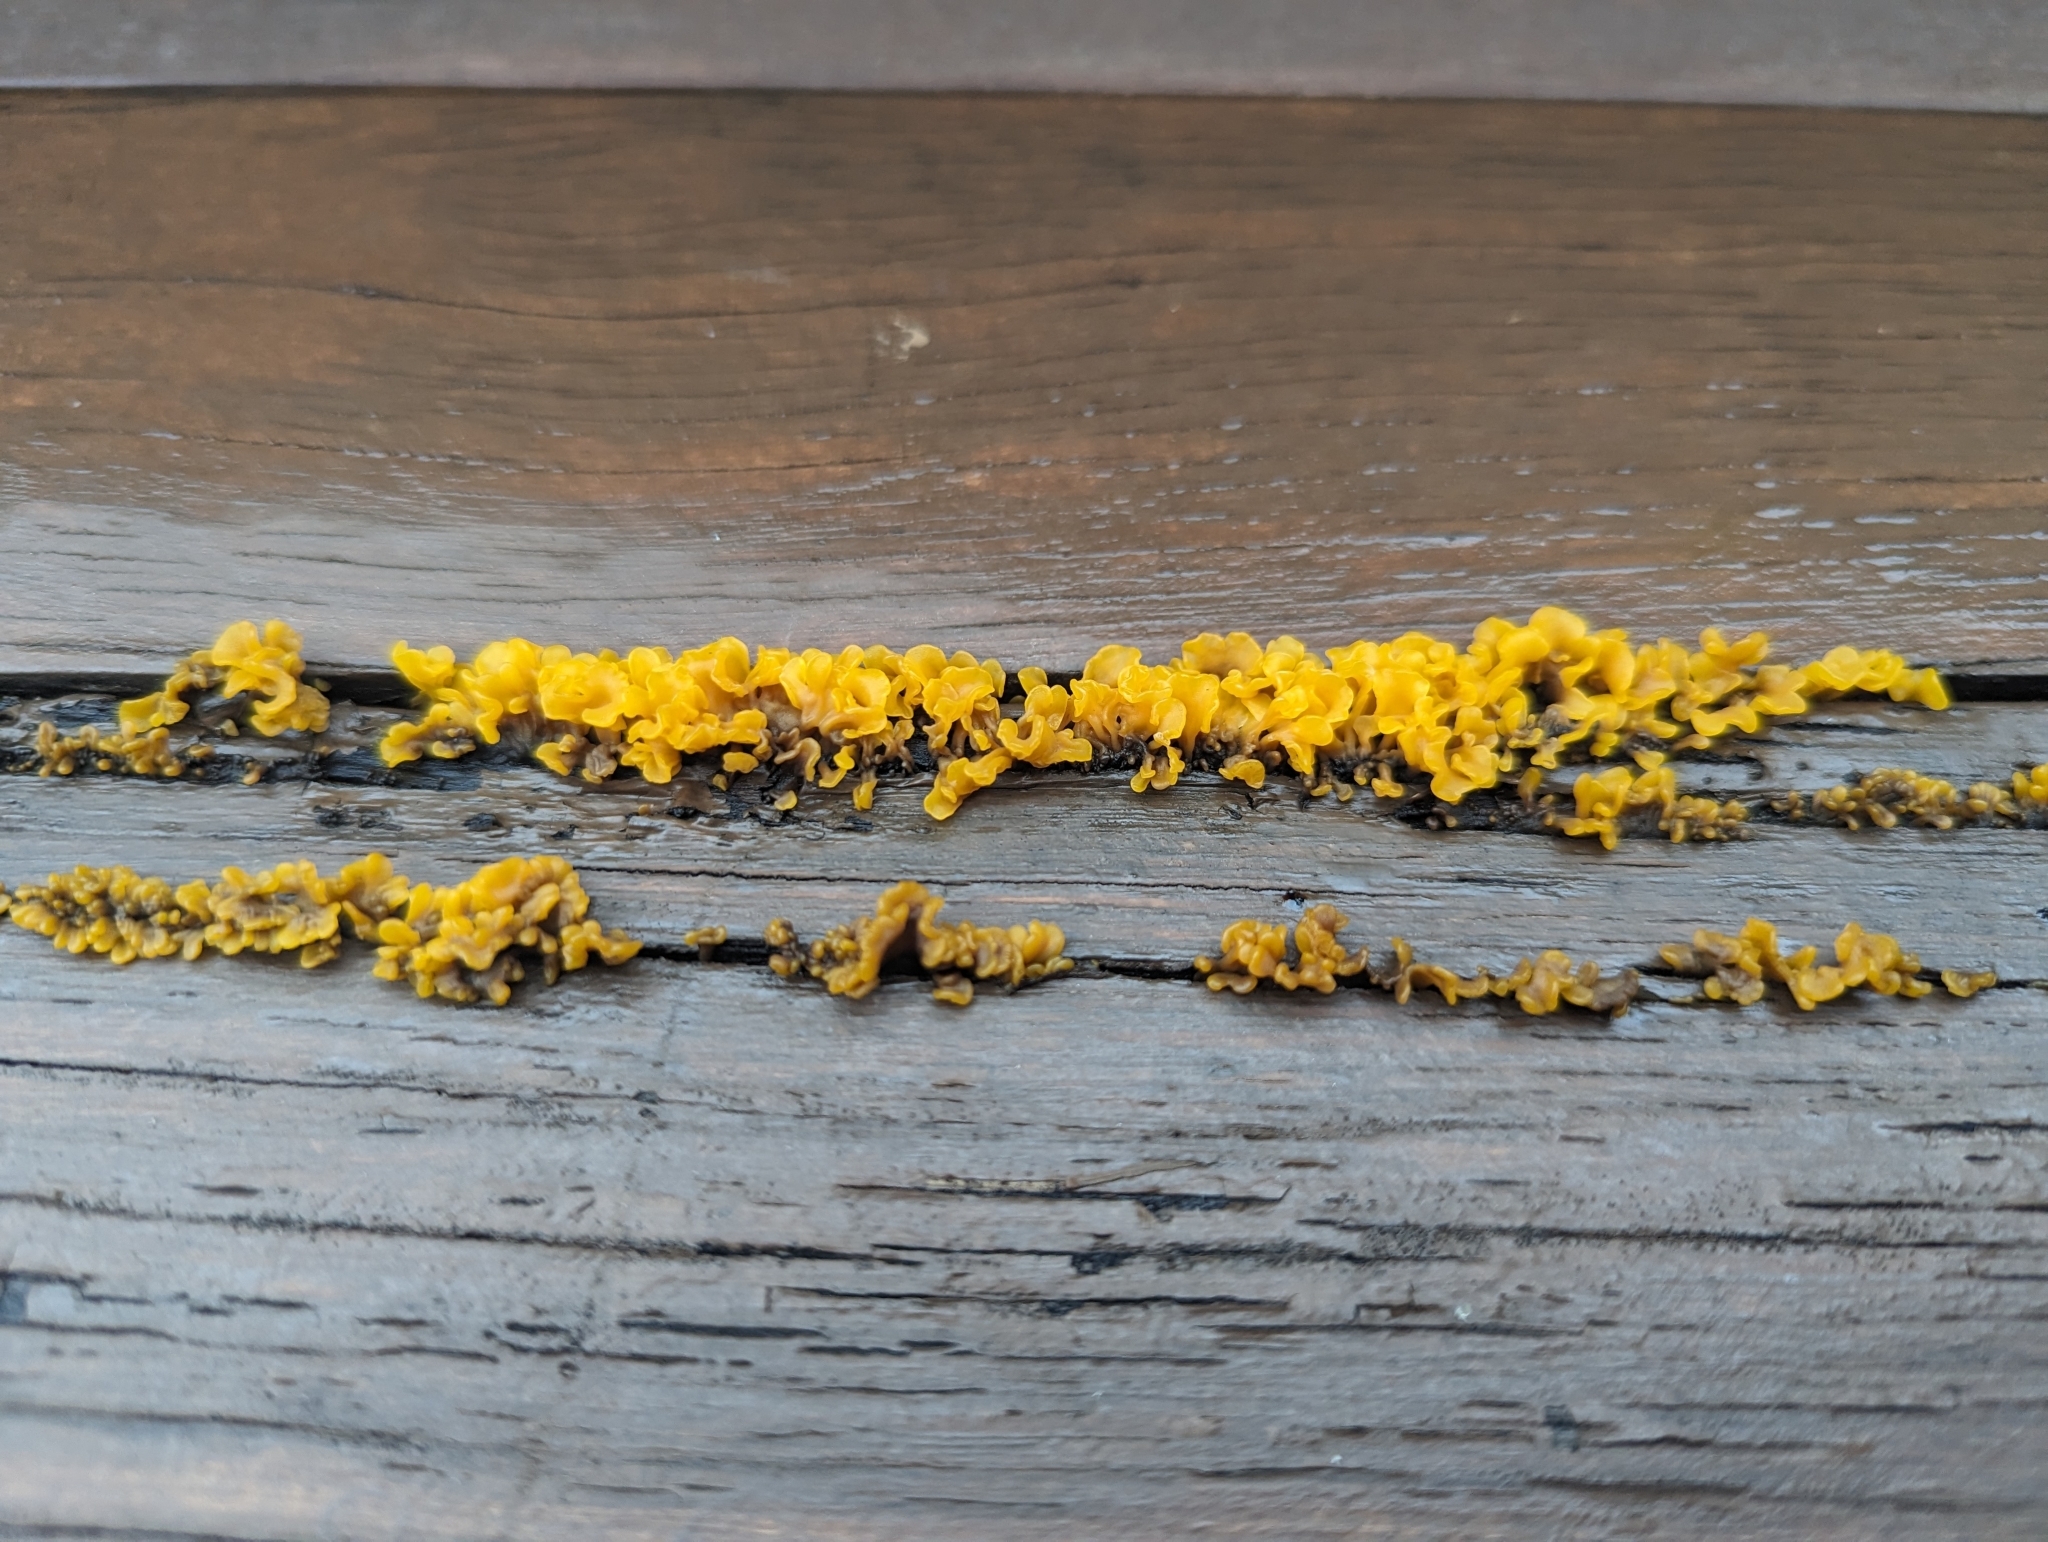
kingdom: Fungi
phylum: Basidiomycota
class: Dacrymycetes
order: Dacrymycetales
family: Dacrymycetaceae
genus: Dacrymyces
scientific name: Dacrymyces spathularius
